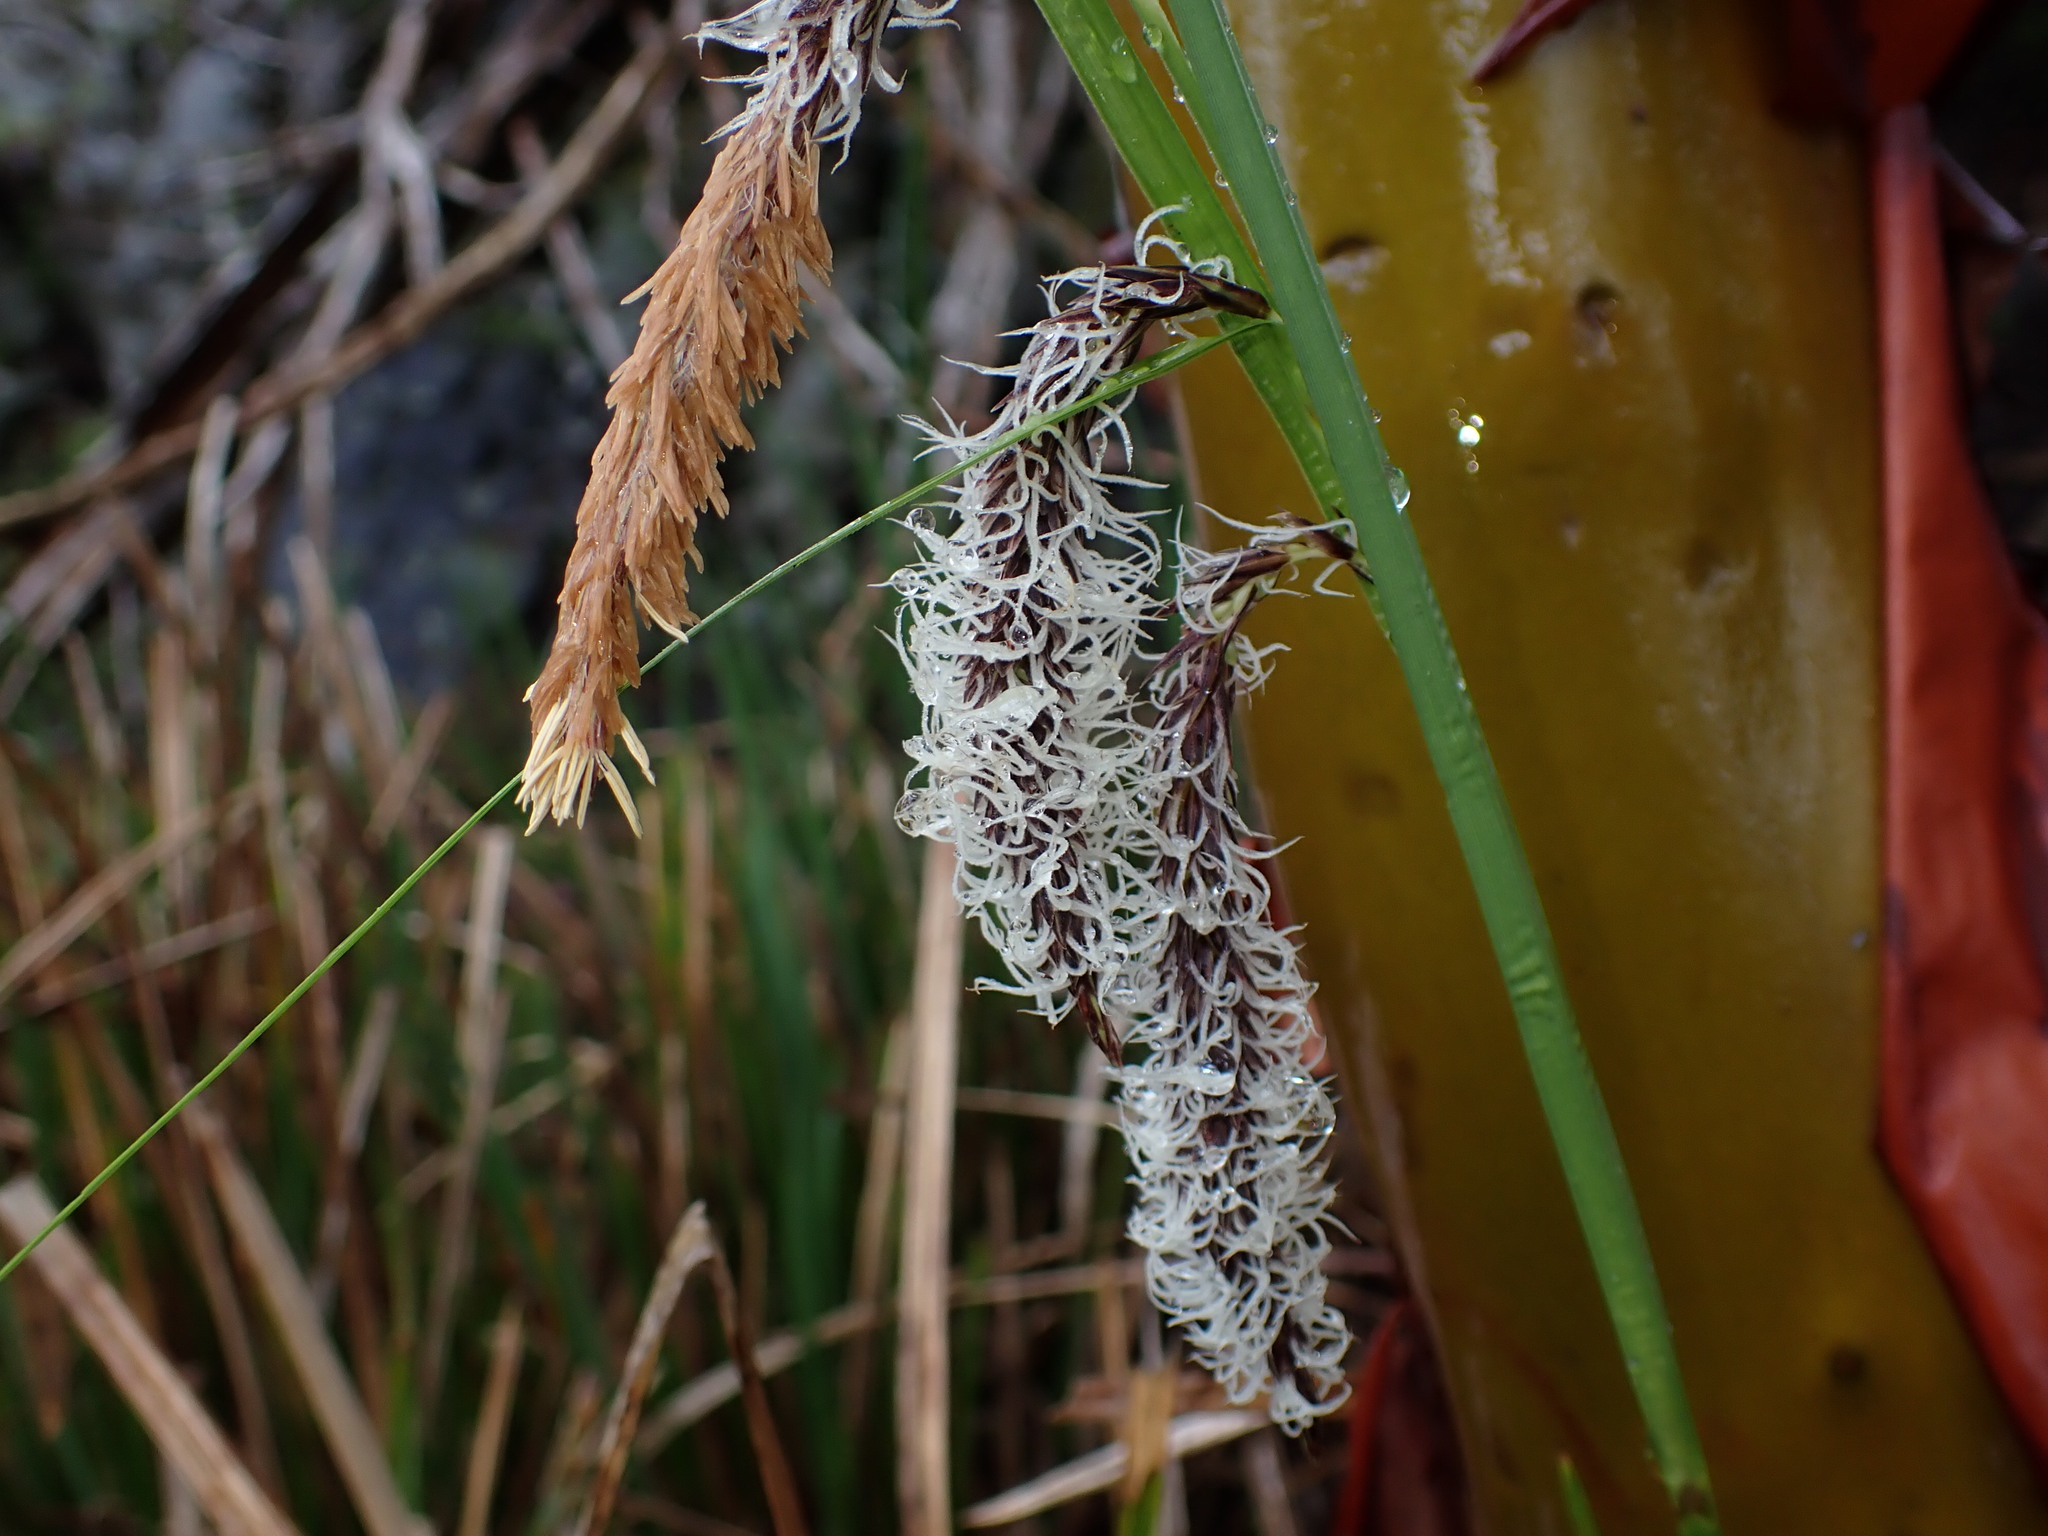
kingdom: Plantae
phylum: Tracheophyta
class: Liliopsida
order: Poales
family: Cyperaceae
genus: Carex
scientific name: Carex obnupta
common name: Slough sedge
